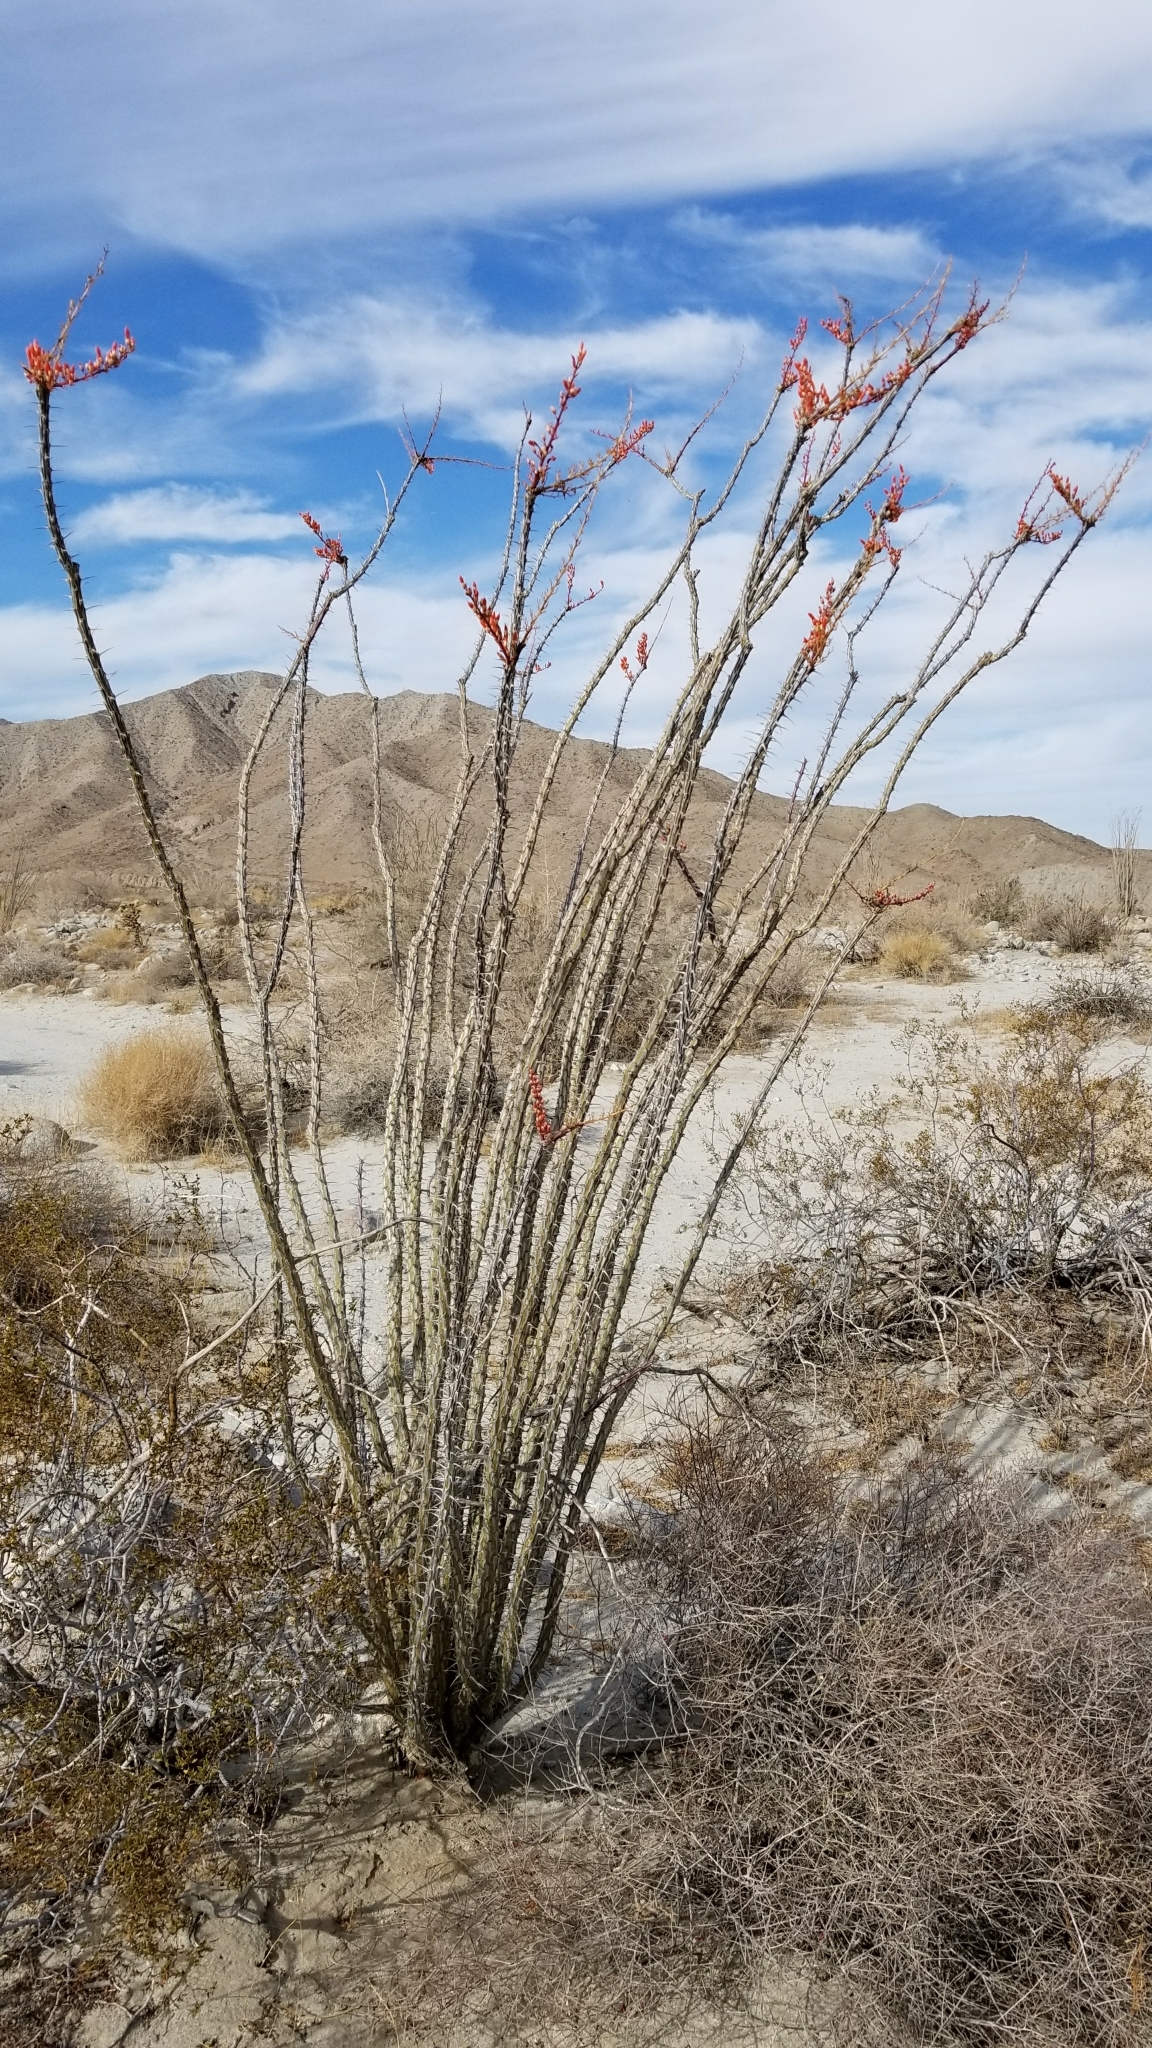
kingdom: Plantae
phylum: Tracheophyta
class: Magnoliopsida
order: Ericales
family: Fouquieriaceae
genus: Fouquieria
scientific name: Fouquieria splendens
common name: Vine-cactus
